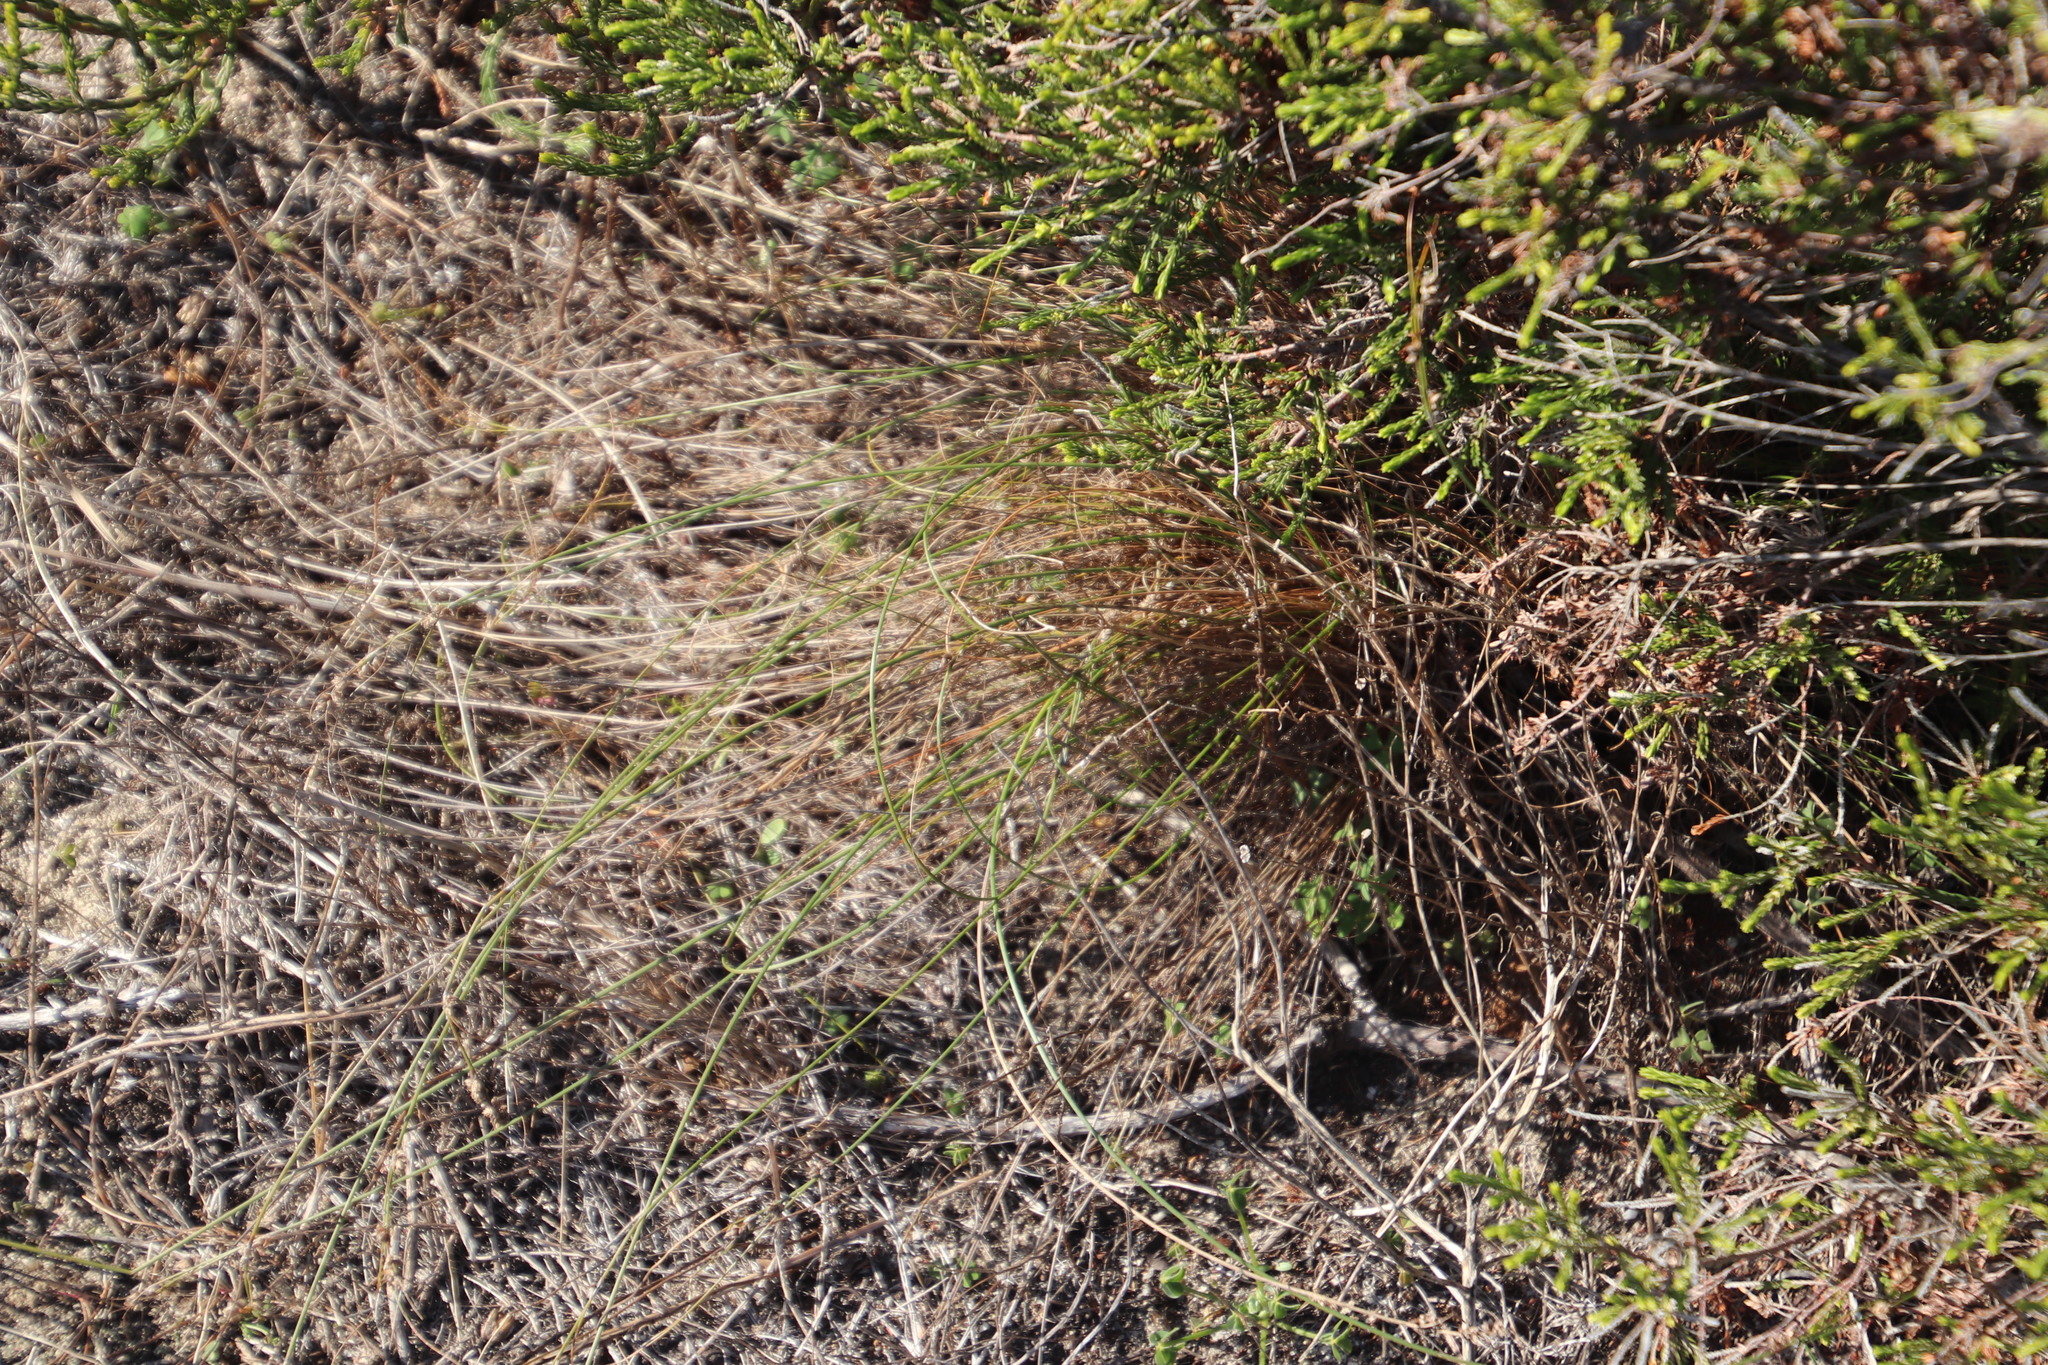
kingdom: Plantae
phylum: Tracheophyta
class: Liliopsida
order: Poales
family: Cyperaceae
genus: Ficinia
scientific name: Ficinia nodosa
